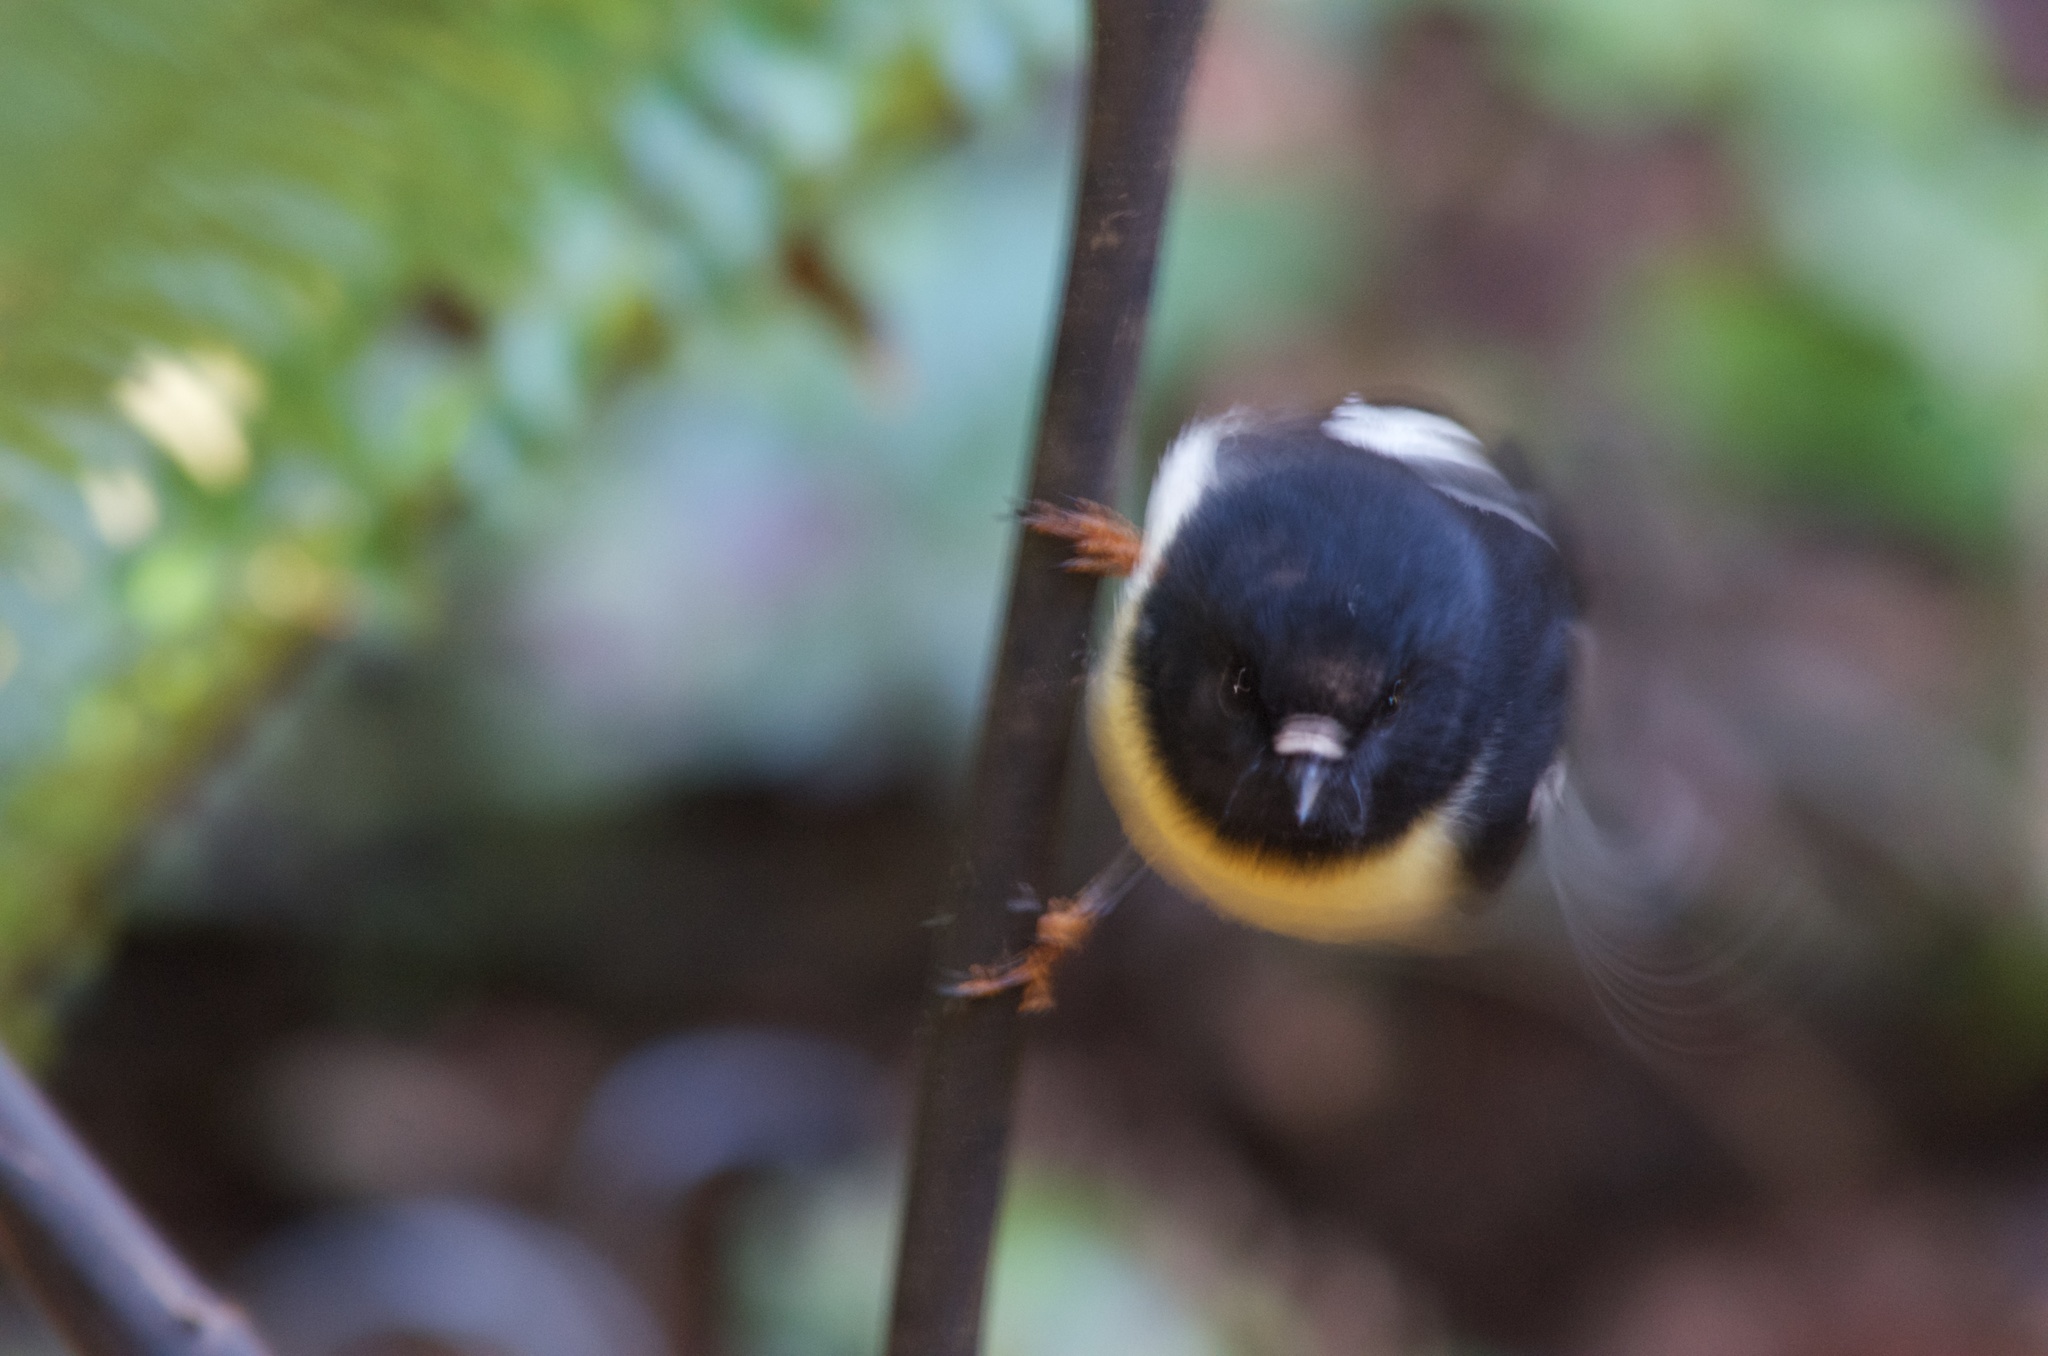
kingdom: Animalia
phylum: Chordata
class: Aves
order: Passeriformes
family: Petroicidae
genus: Petroica
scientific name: Petroica macrocephala
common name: Tomtit
